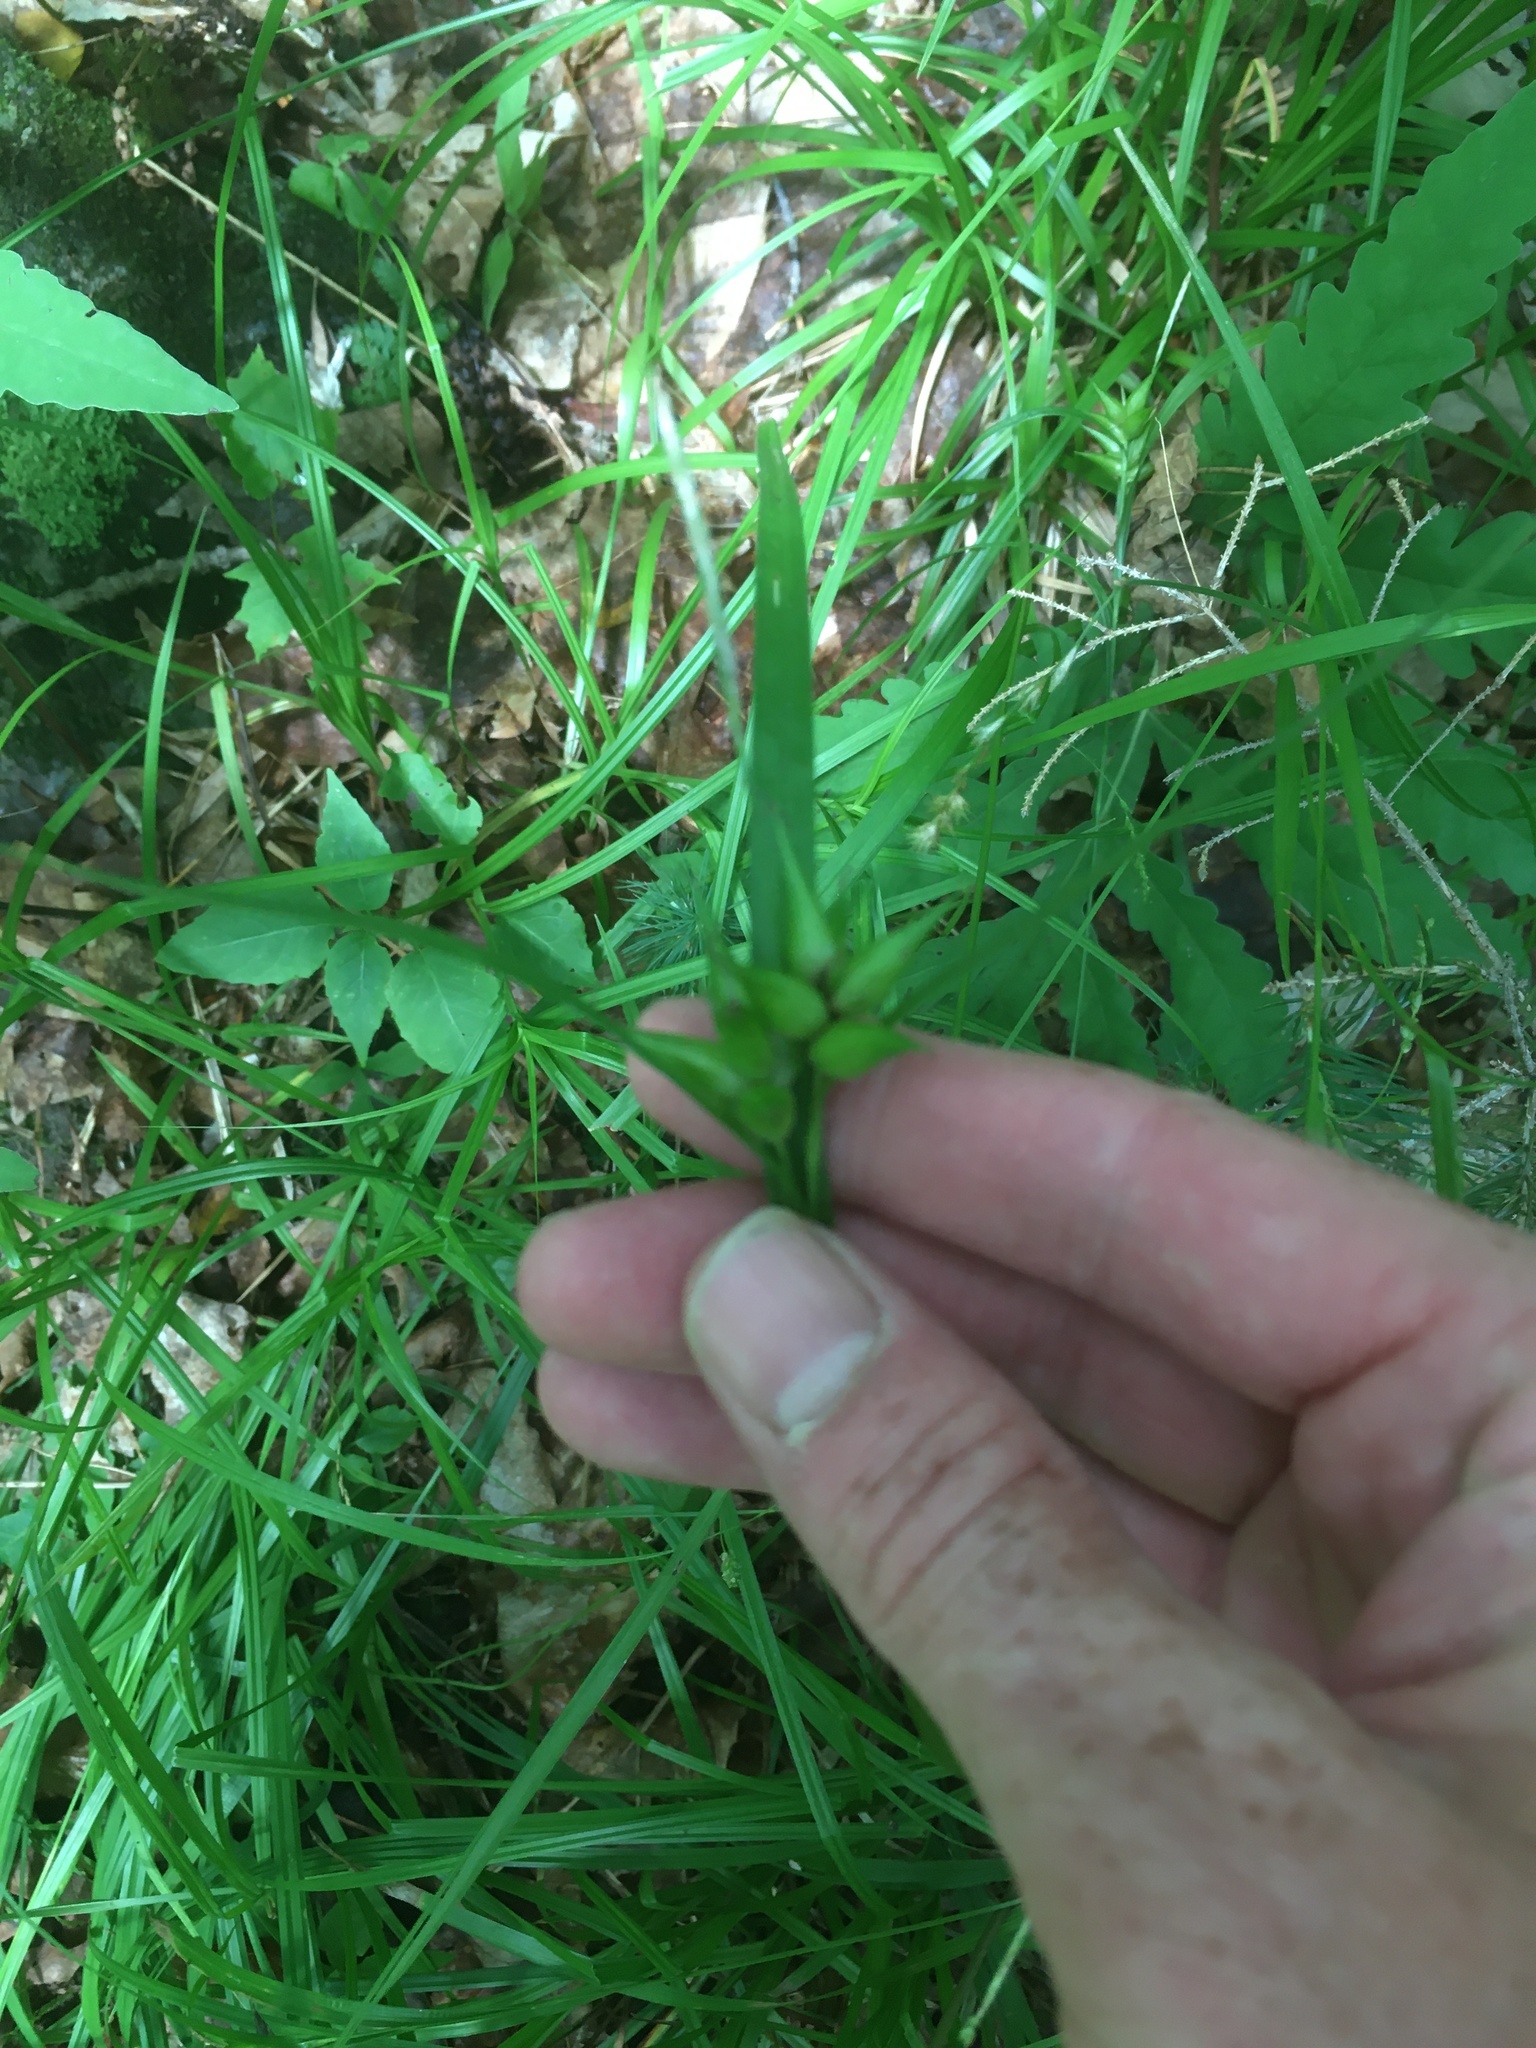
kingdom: Plantae
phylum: Tracheophyta
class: Liliopsida
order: Poales
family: Cyperaceae
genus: Carex
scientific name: Carex intumescens
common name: Greater bladder sedge
